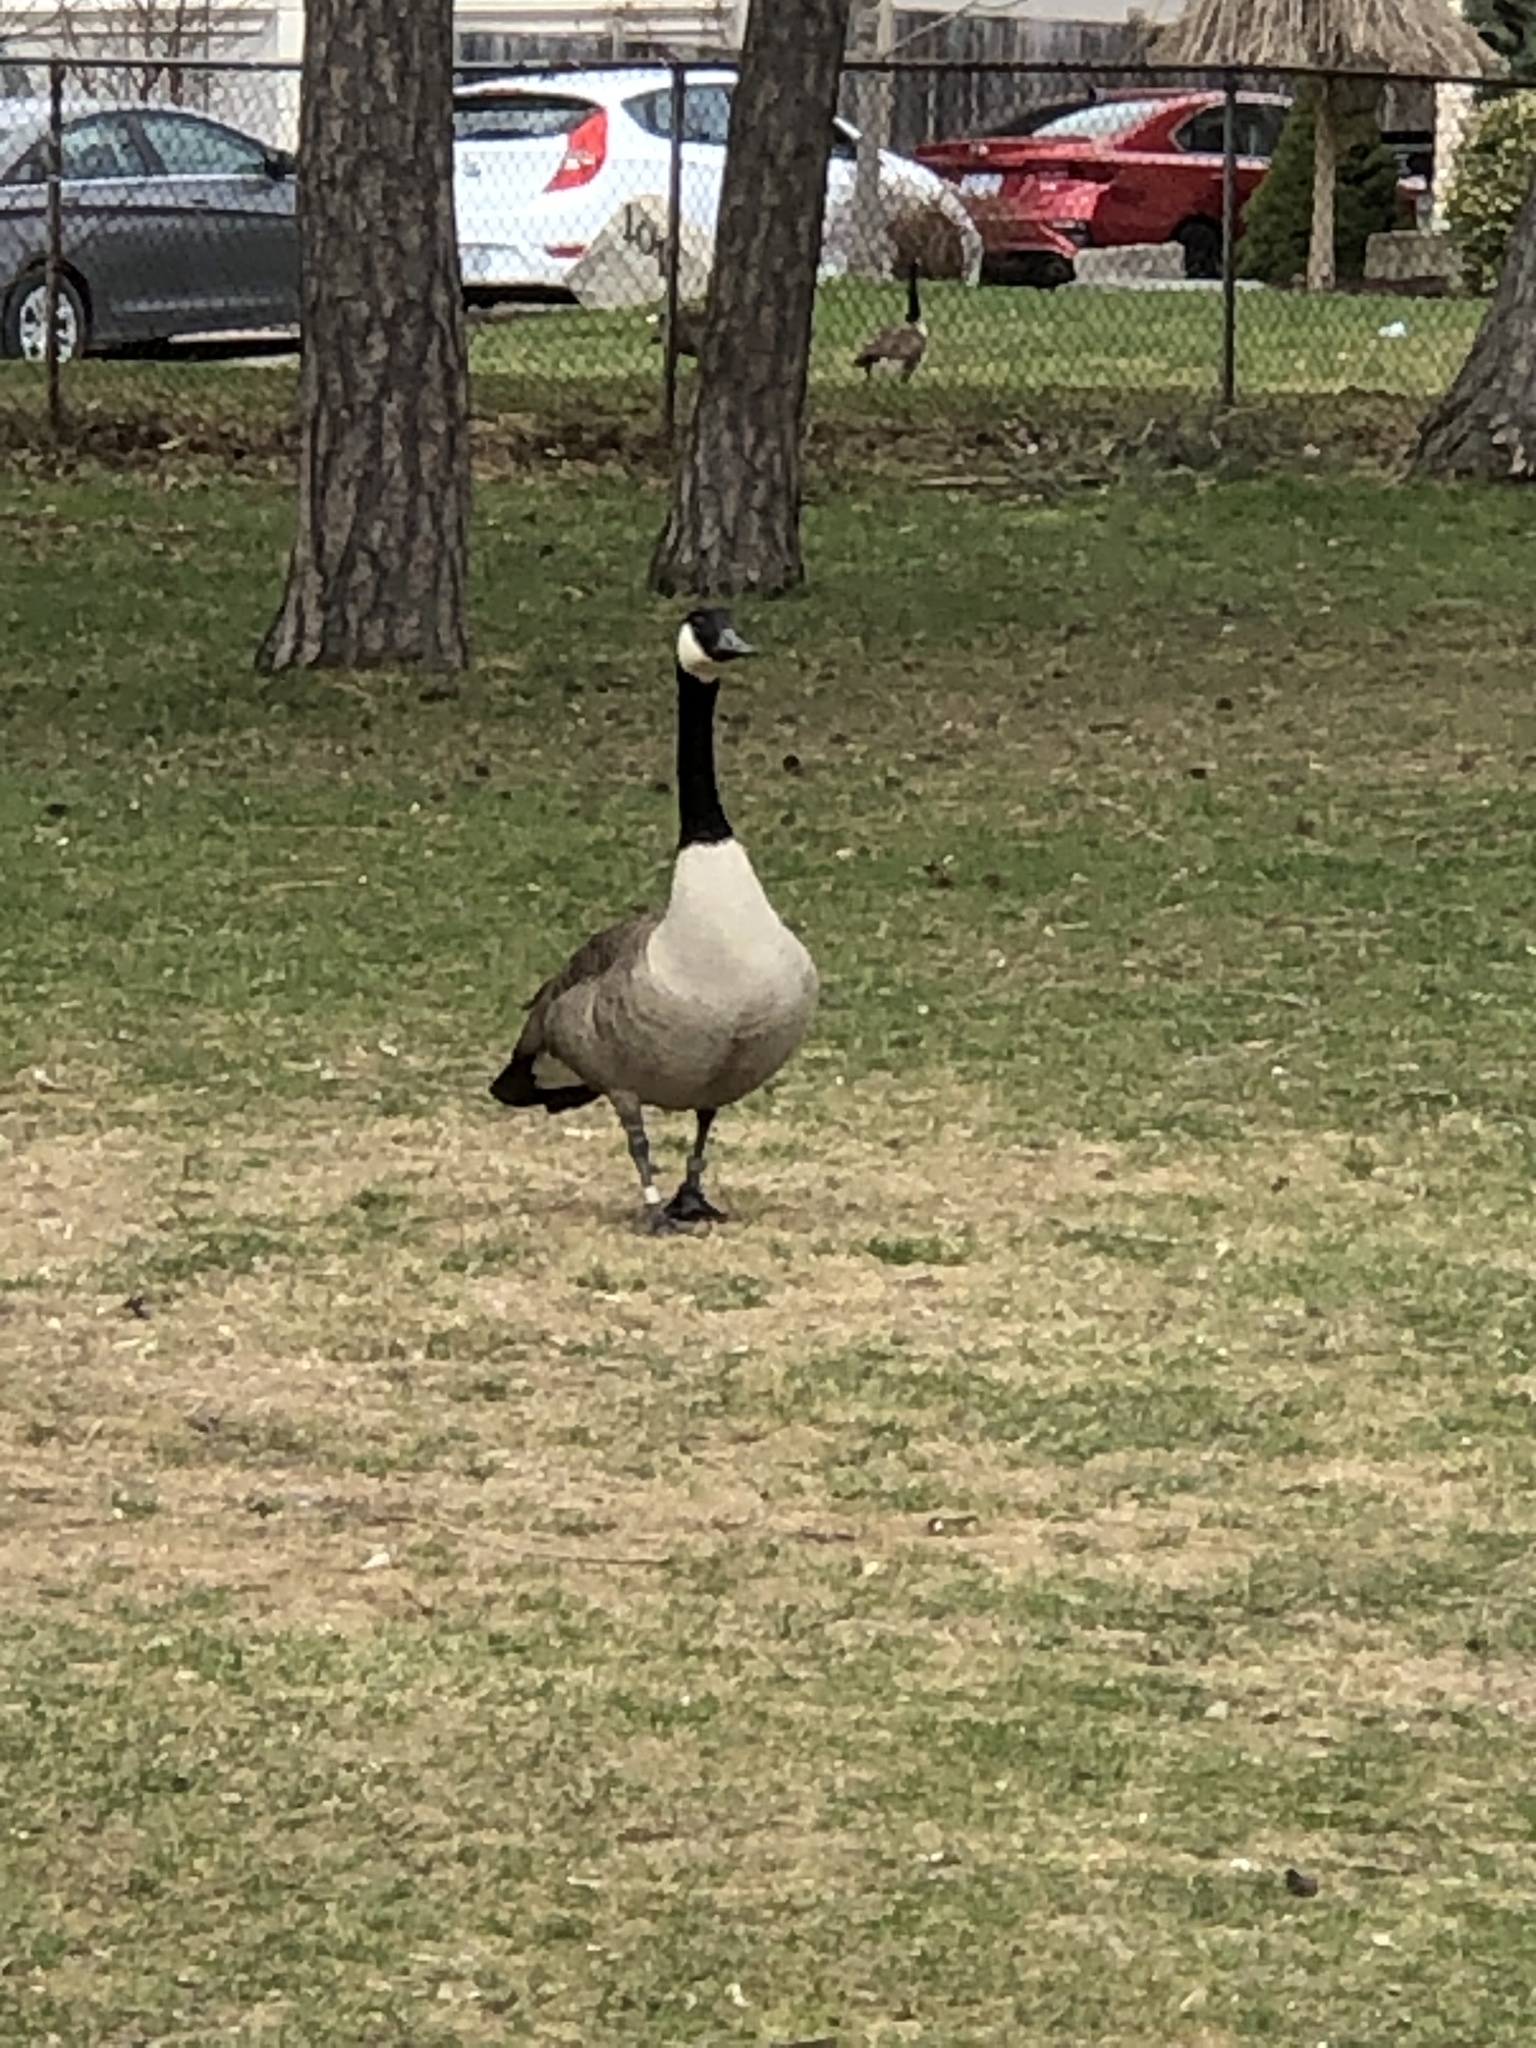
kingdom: Animalia
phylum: Chordata
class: Aves
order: Anseriformes
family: Anatidae
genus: Branta
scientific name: Branta canadensis
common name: Canada goose
